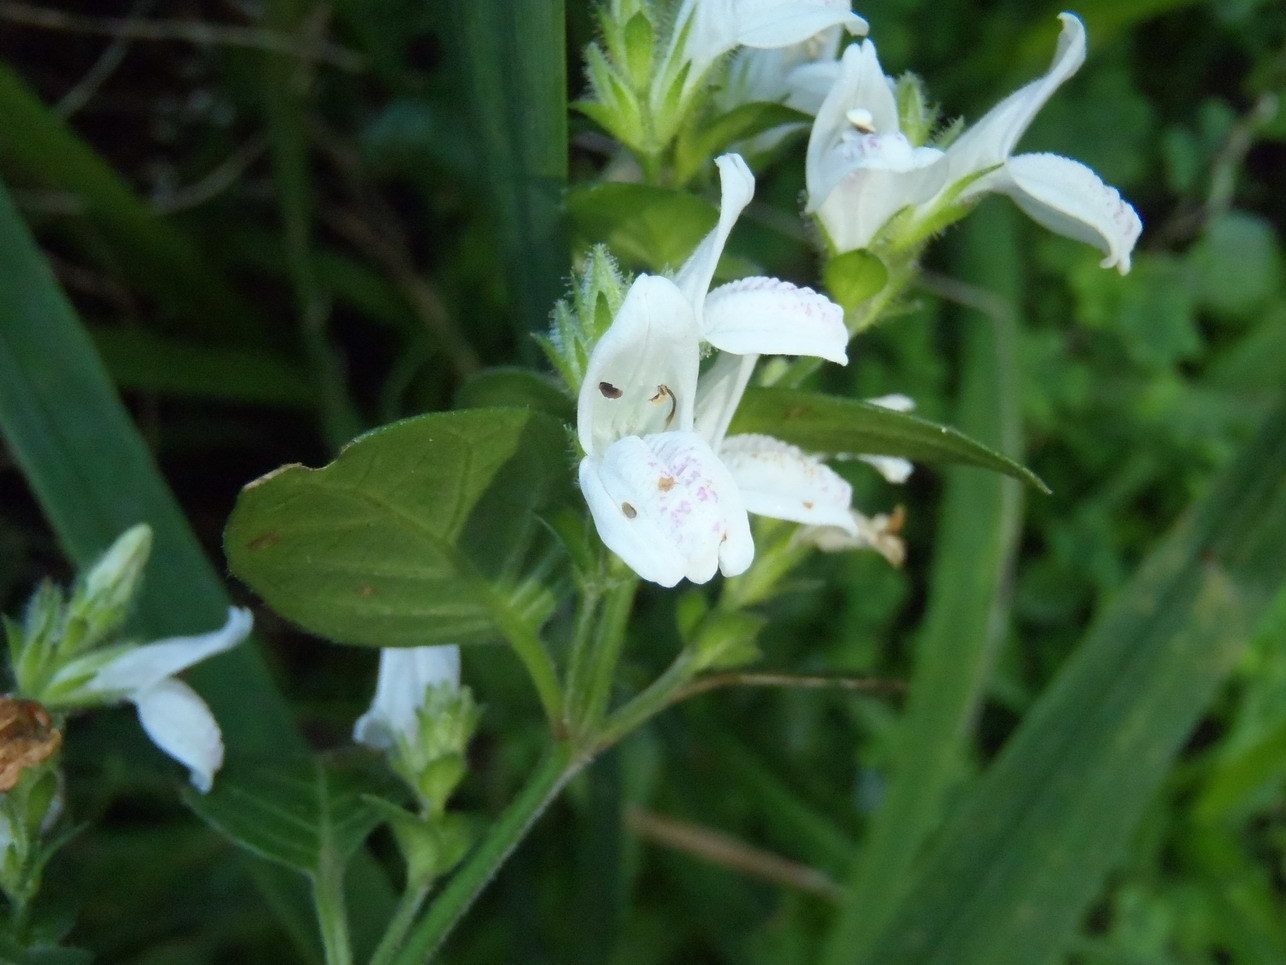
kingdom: Plantae
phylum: Tracheophyta
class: Magnoliopsida
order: Lamiales
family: Acanthaceae
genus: Isoglossa
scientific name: Isoglossa ciliata
